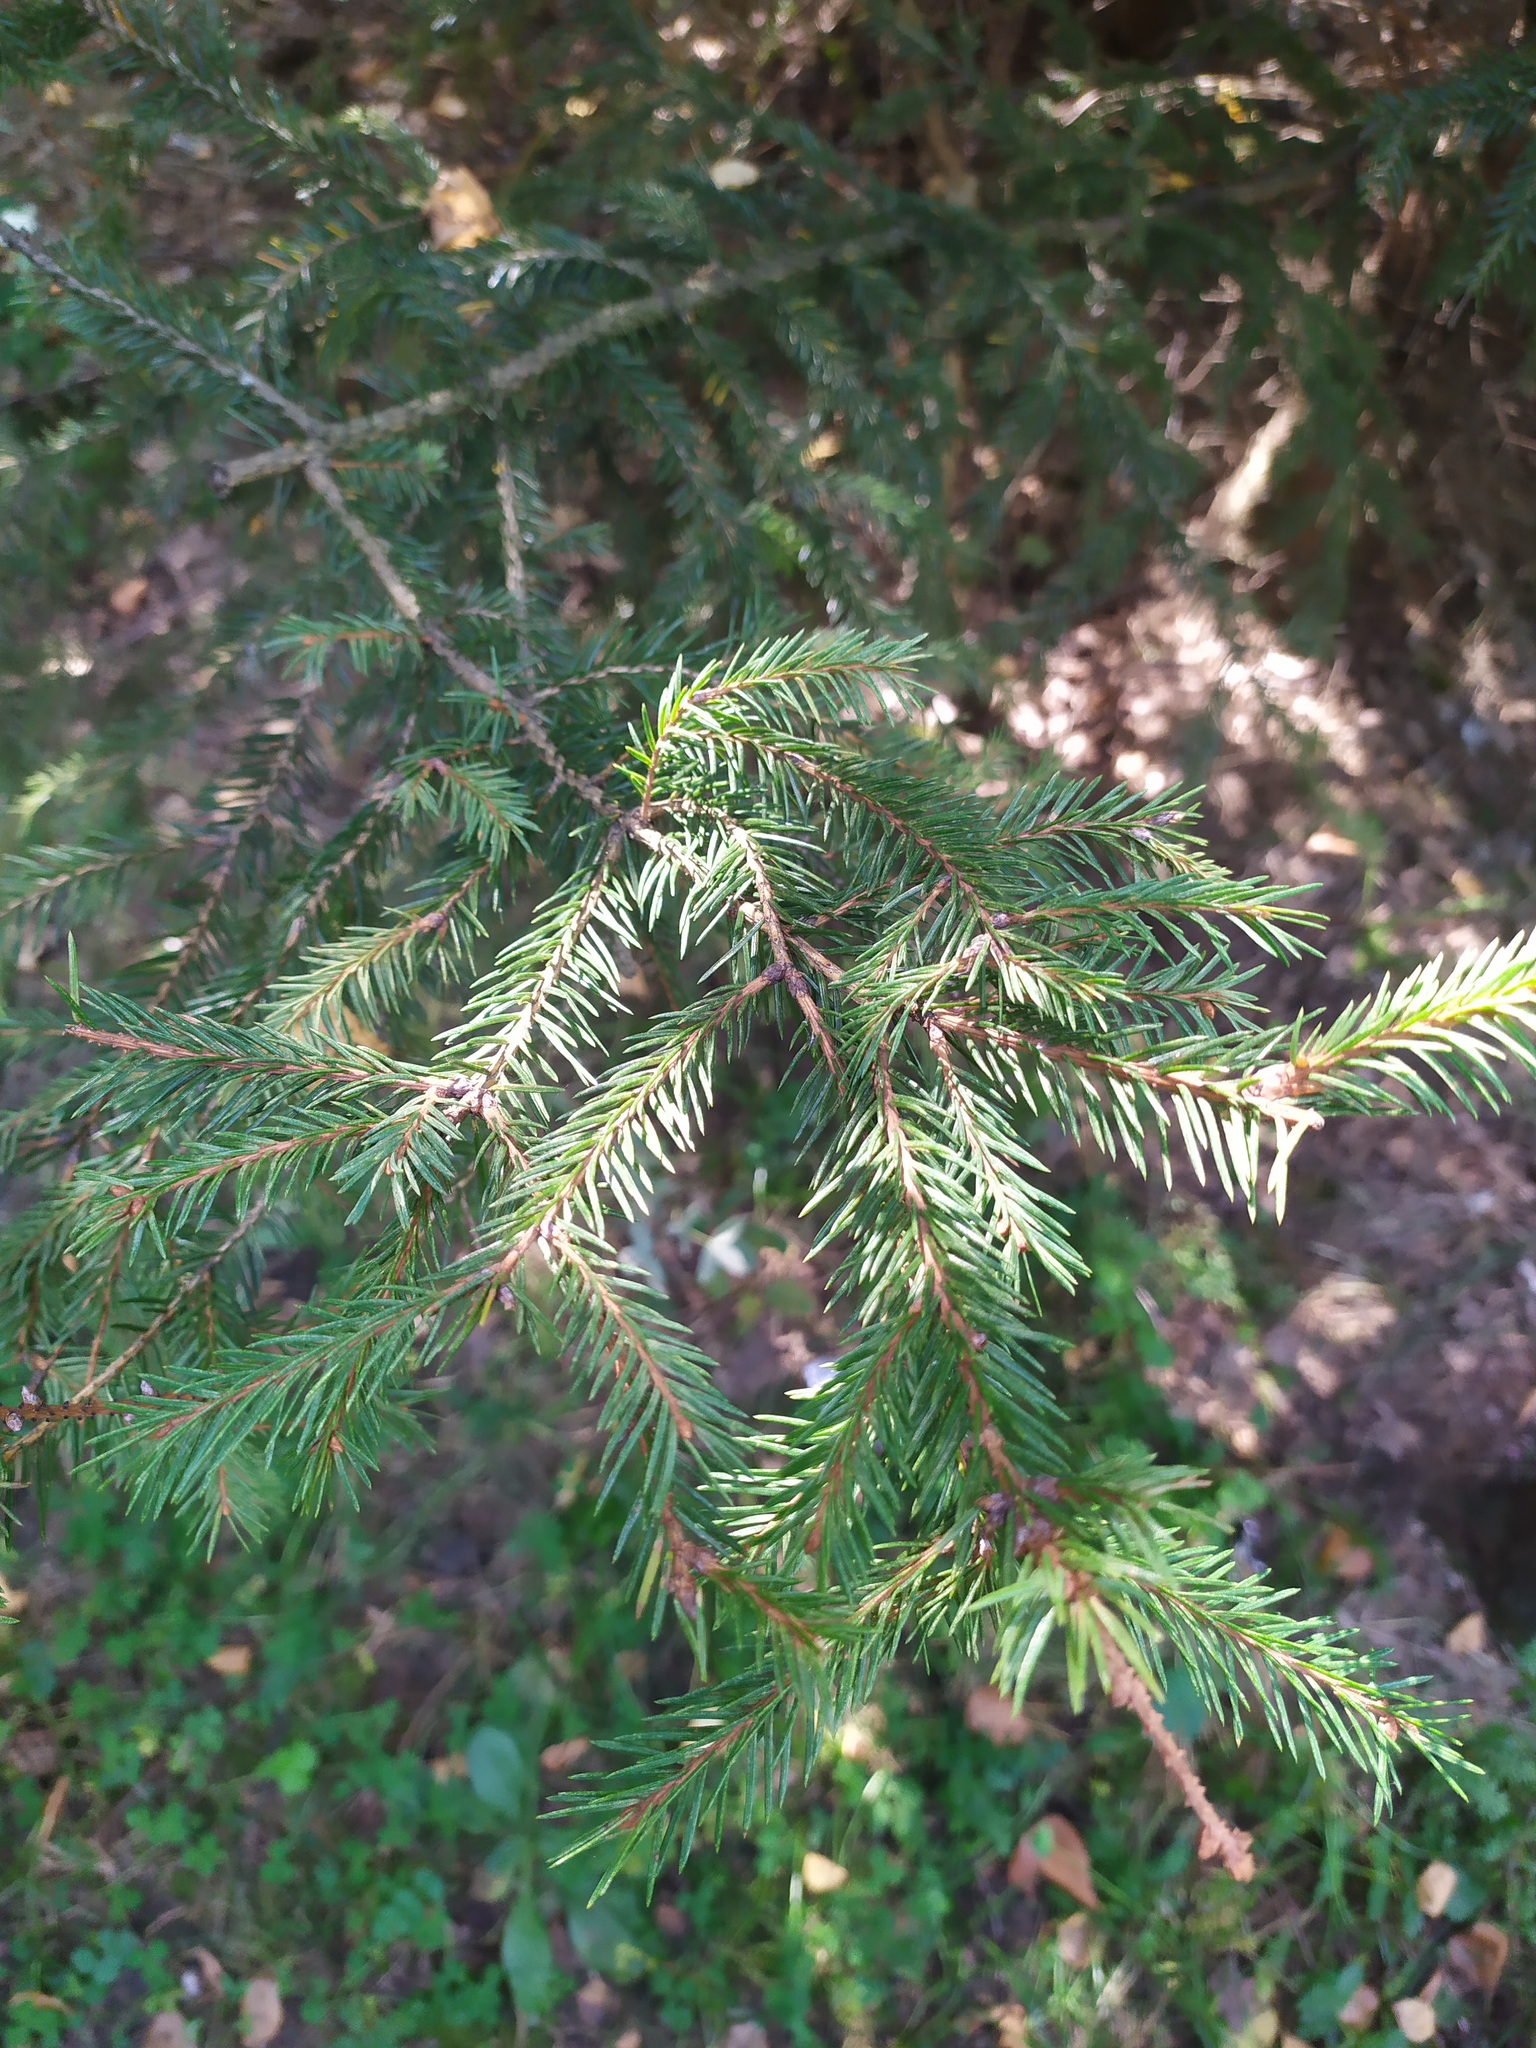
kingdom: Plantae
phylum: Tracheophyta
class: Pinopsida
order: Pinales
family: Pinaceae
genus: Picea
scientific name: Picea
